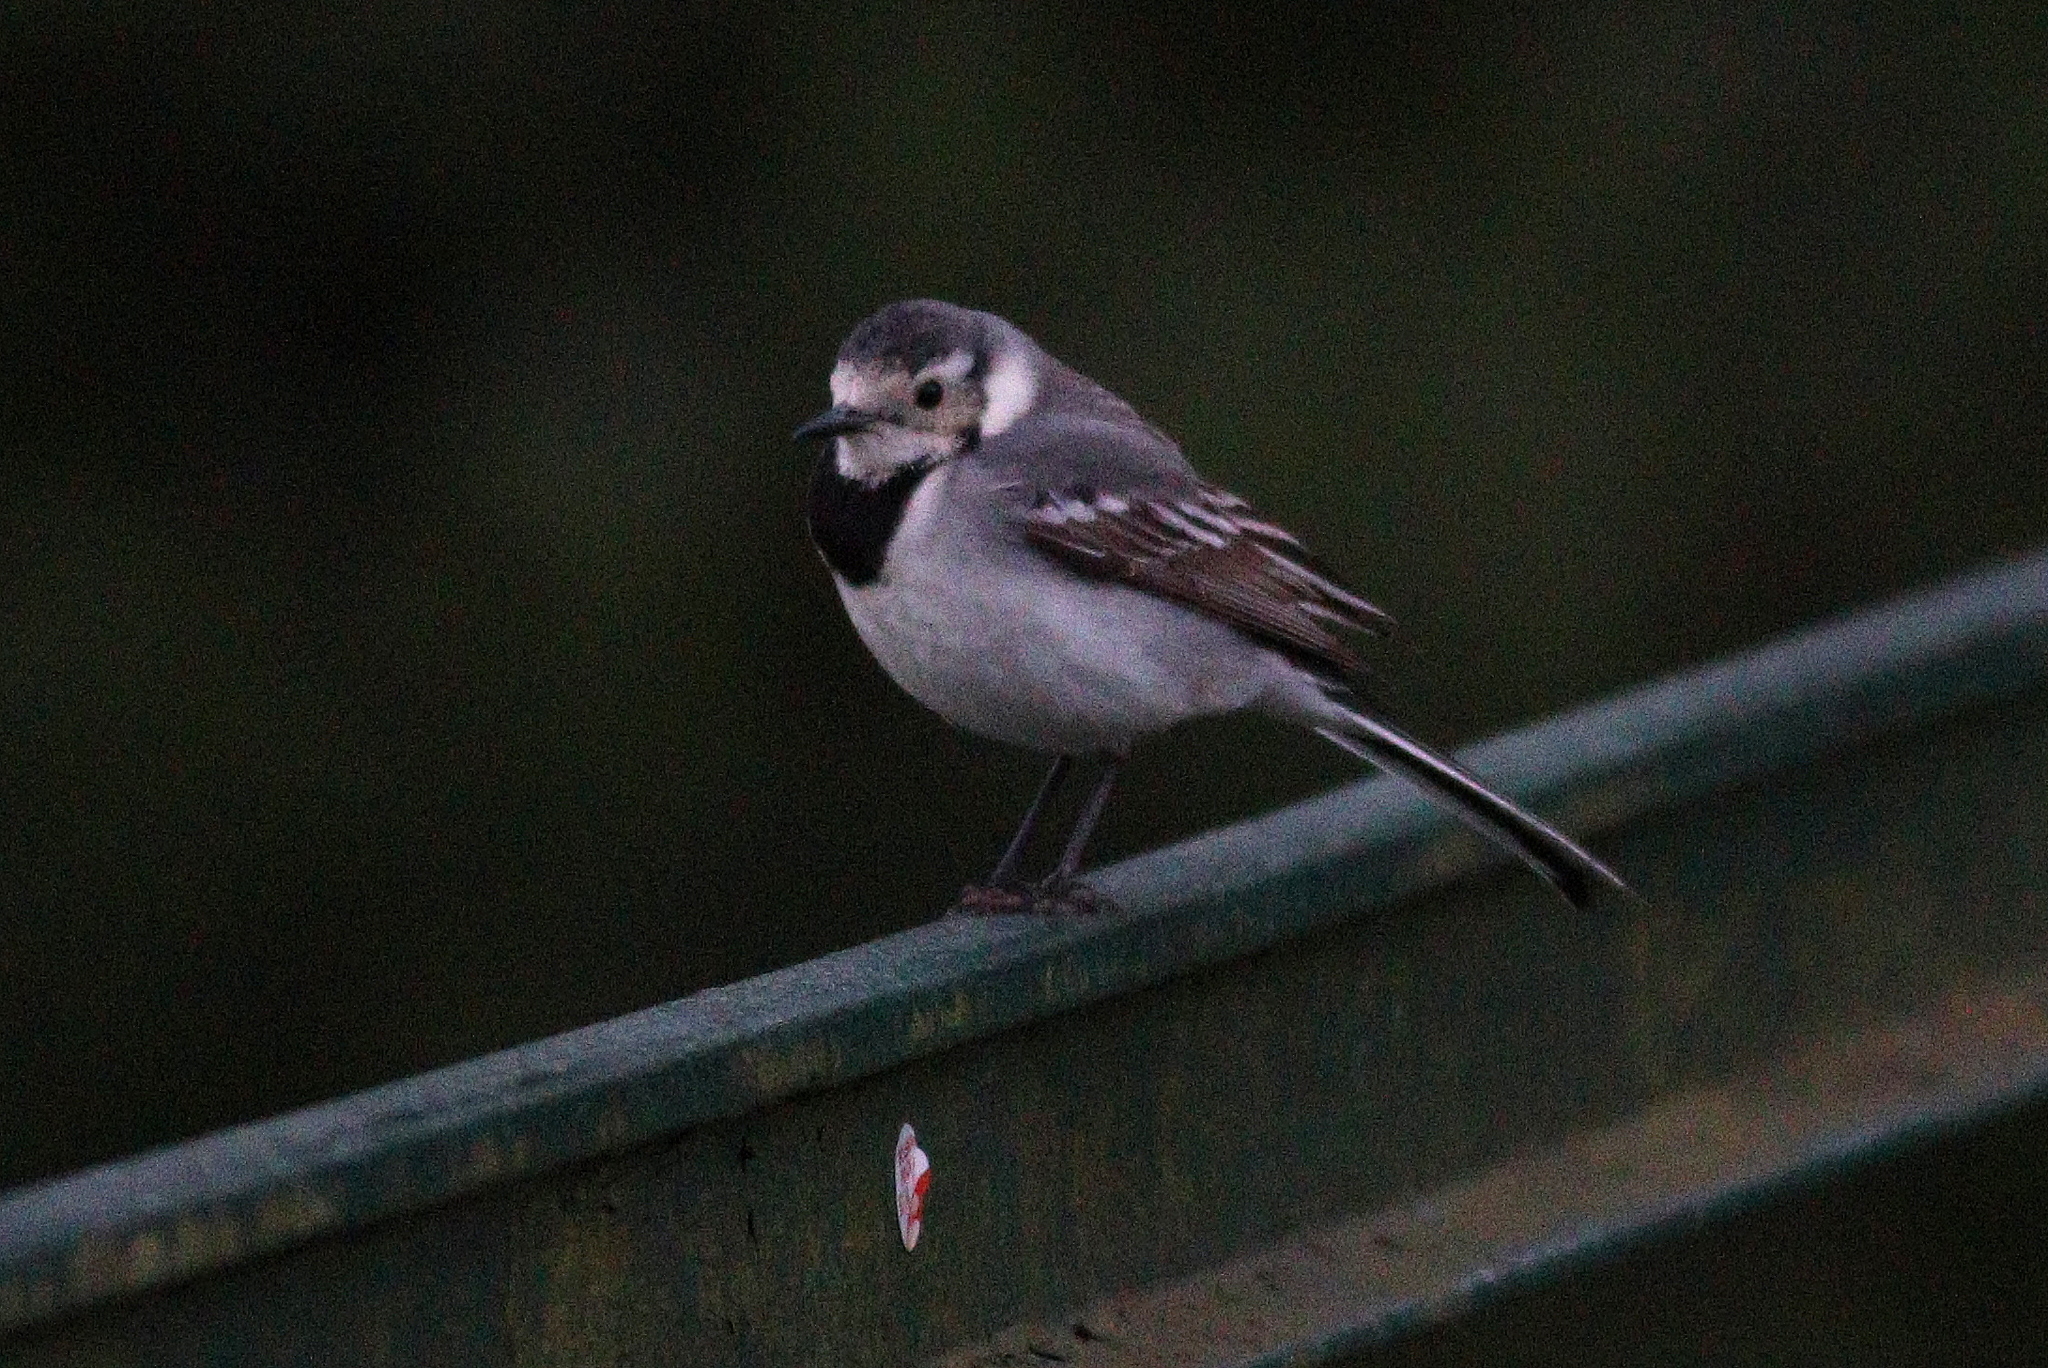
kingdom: Animalia
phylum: Chordata
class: Aves
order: Passeriformes
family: Motacillidae
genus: Motacilla
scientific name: Motacilla alba
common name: White wagtail
